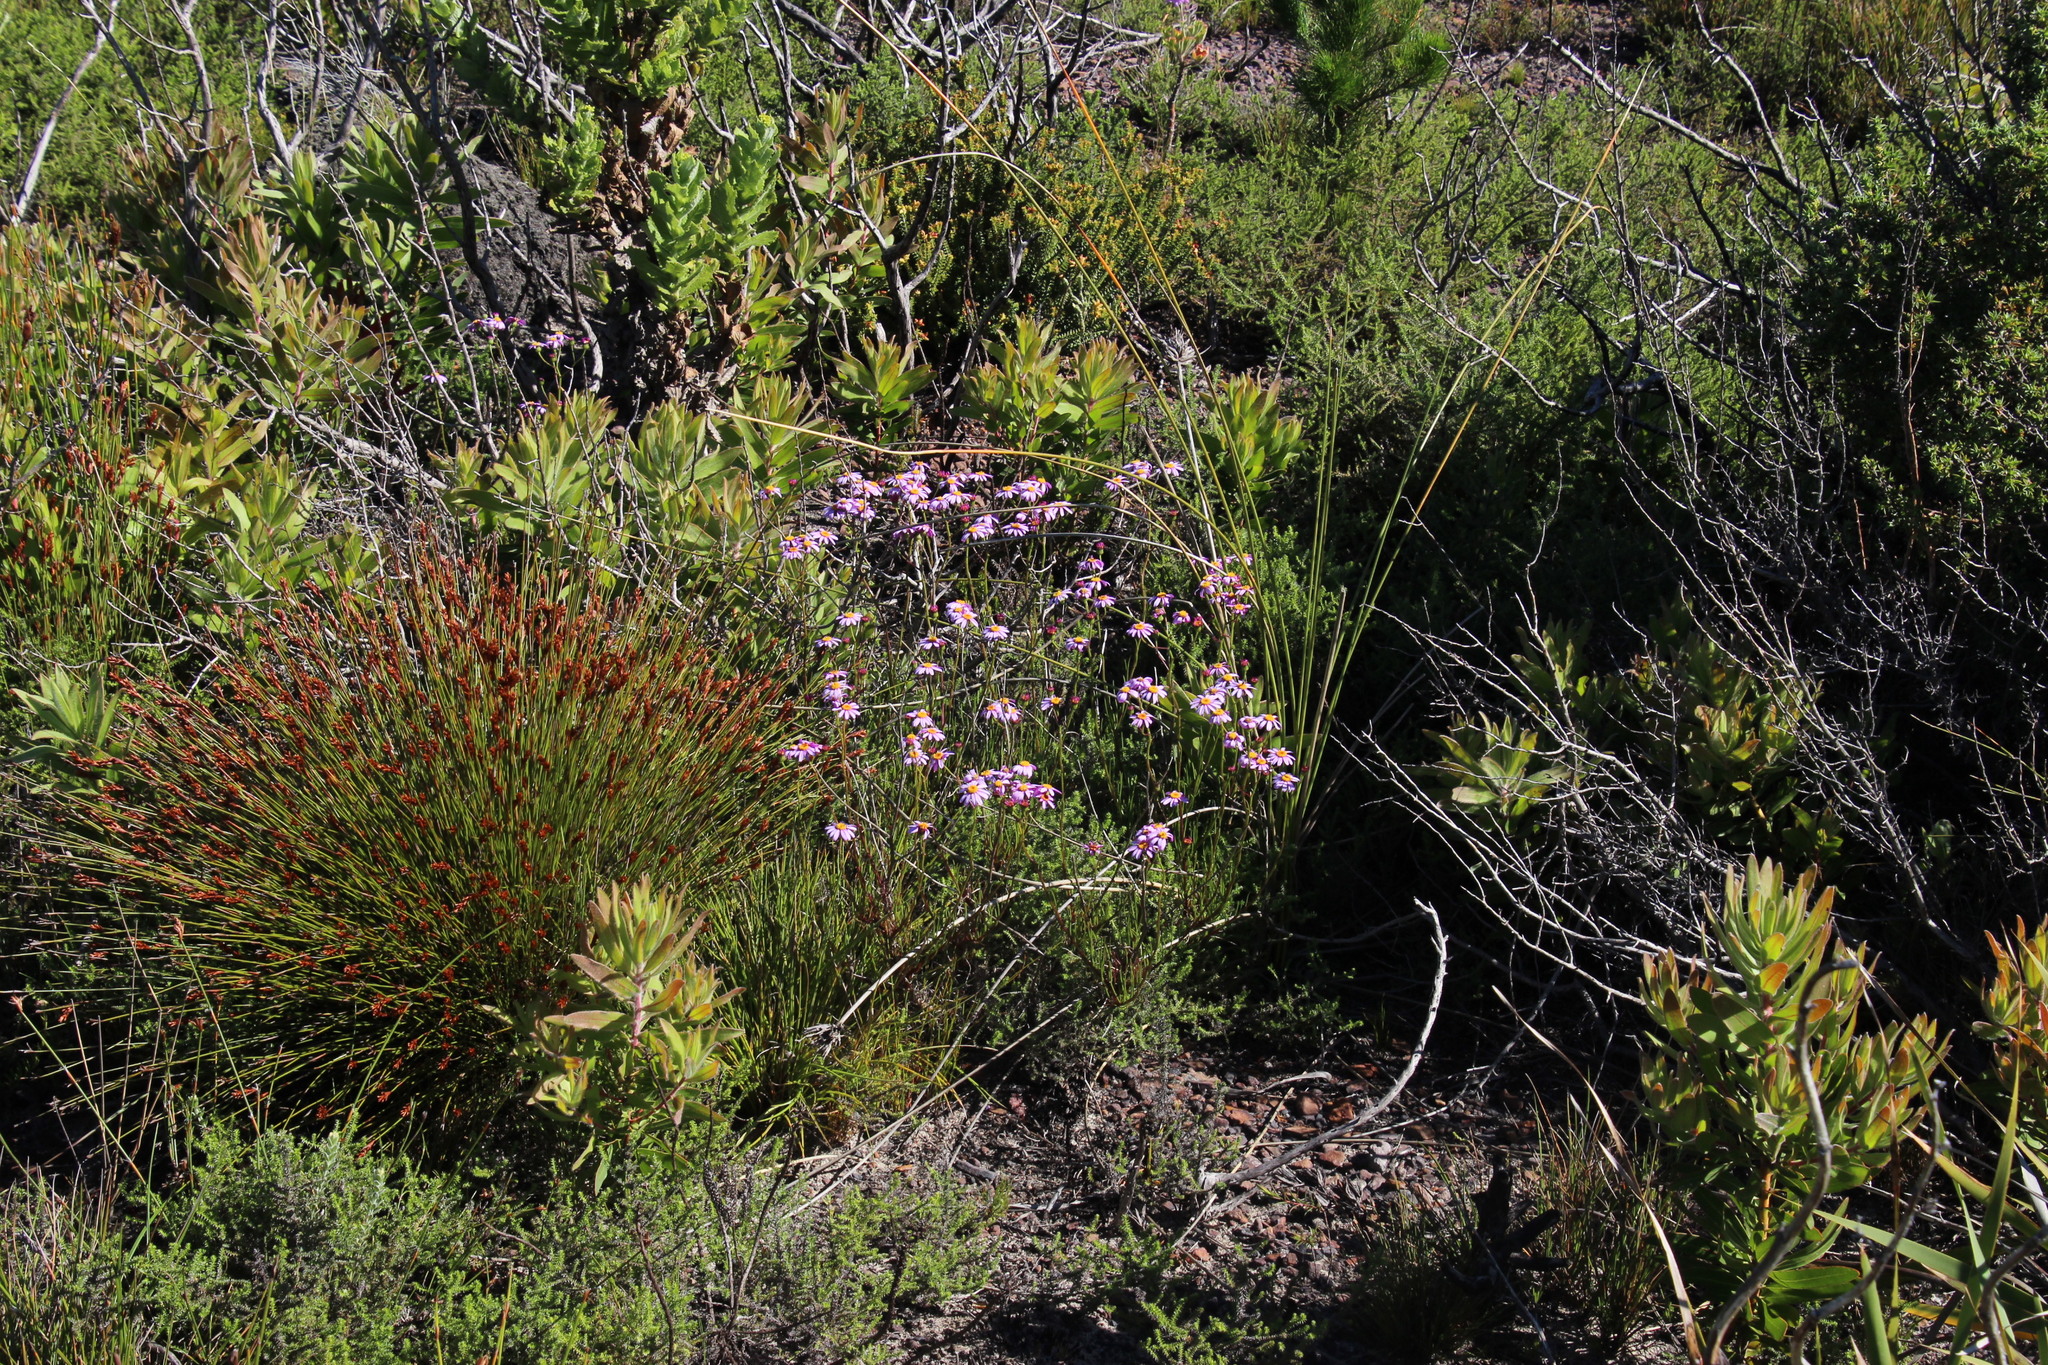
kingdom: Plantae
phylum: Tracheophyta
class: Magnoliopsida
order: Asterales
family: Asteraceae
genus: Senecio
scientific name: Senecio umbellatus
